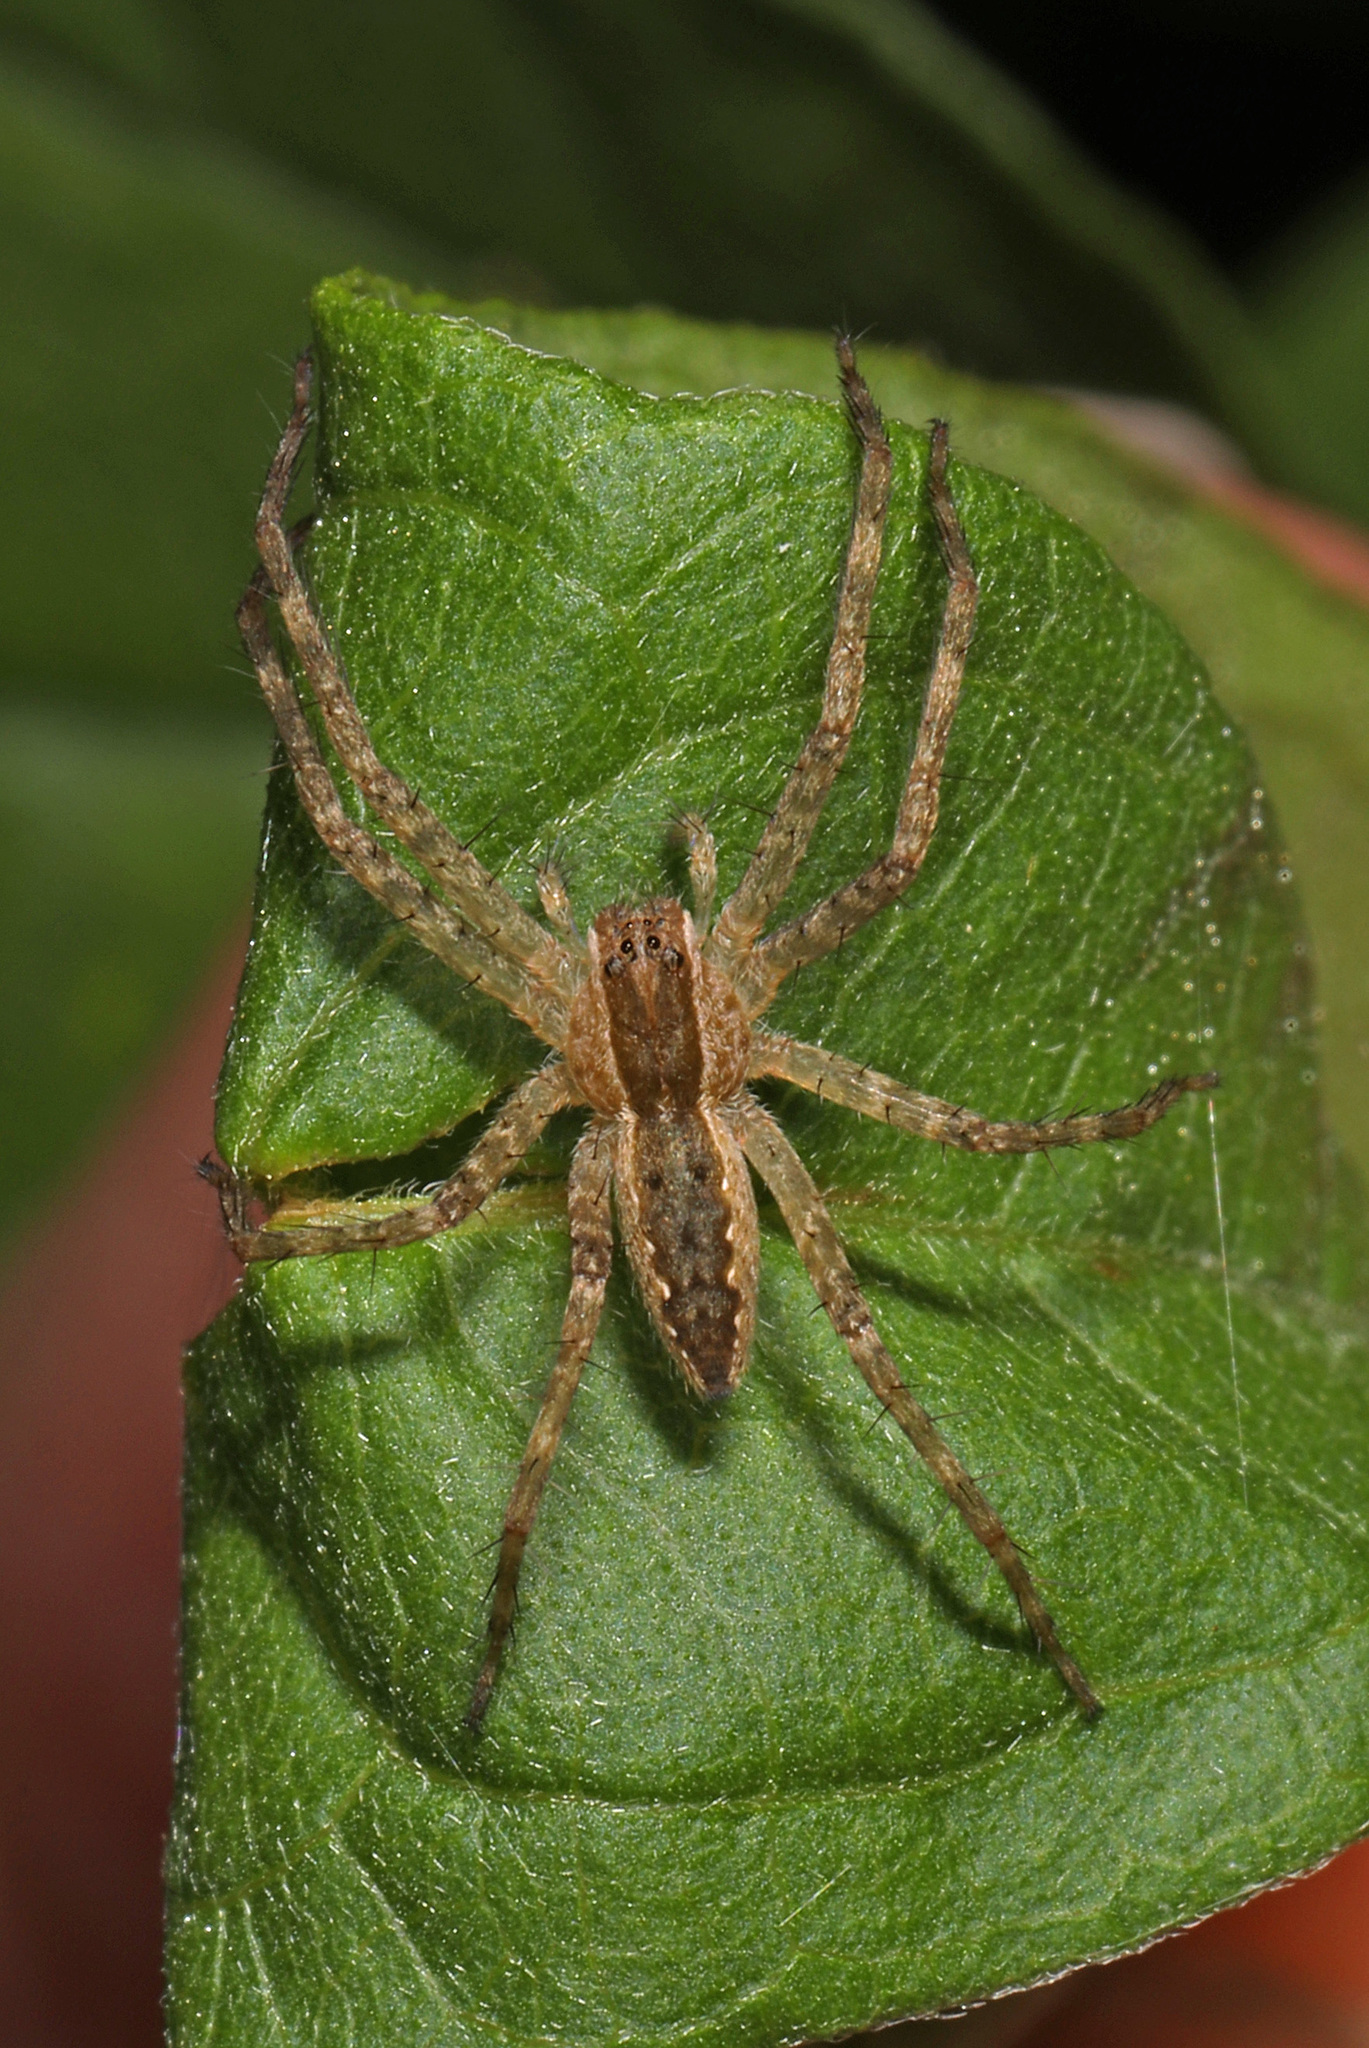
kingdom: Animalia
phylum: Arthropoda
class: Arachnida
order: Araneae
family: Pisauridae
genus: Pisaurina
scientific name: Pisaurina mira
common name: American nursery web spider
